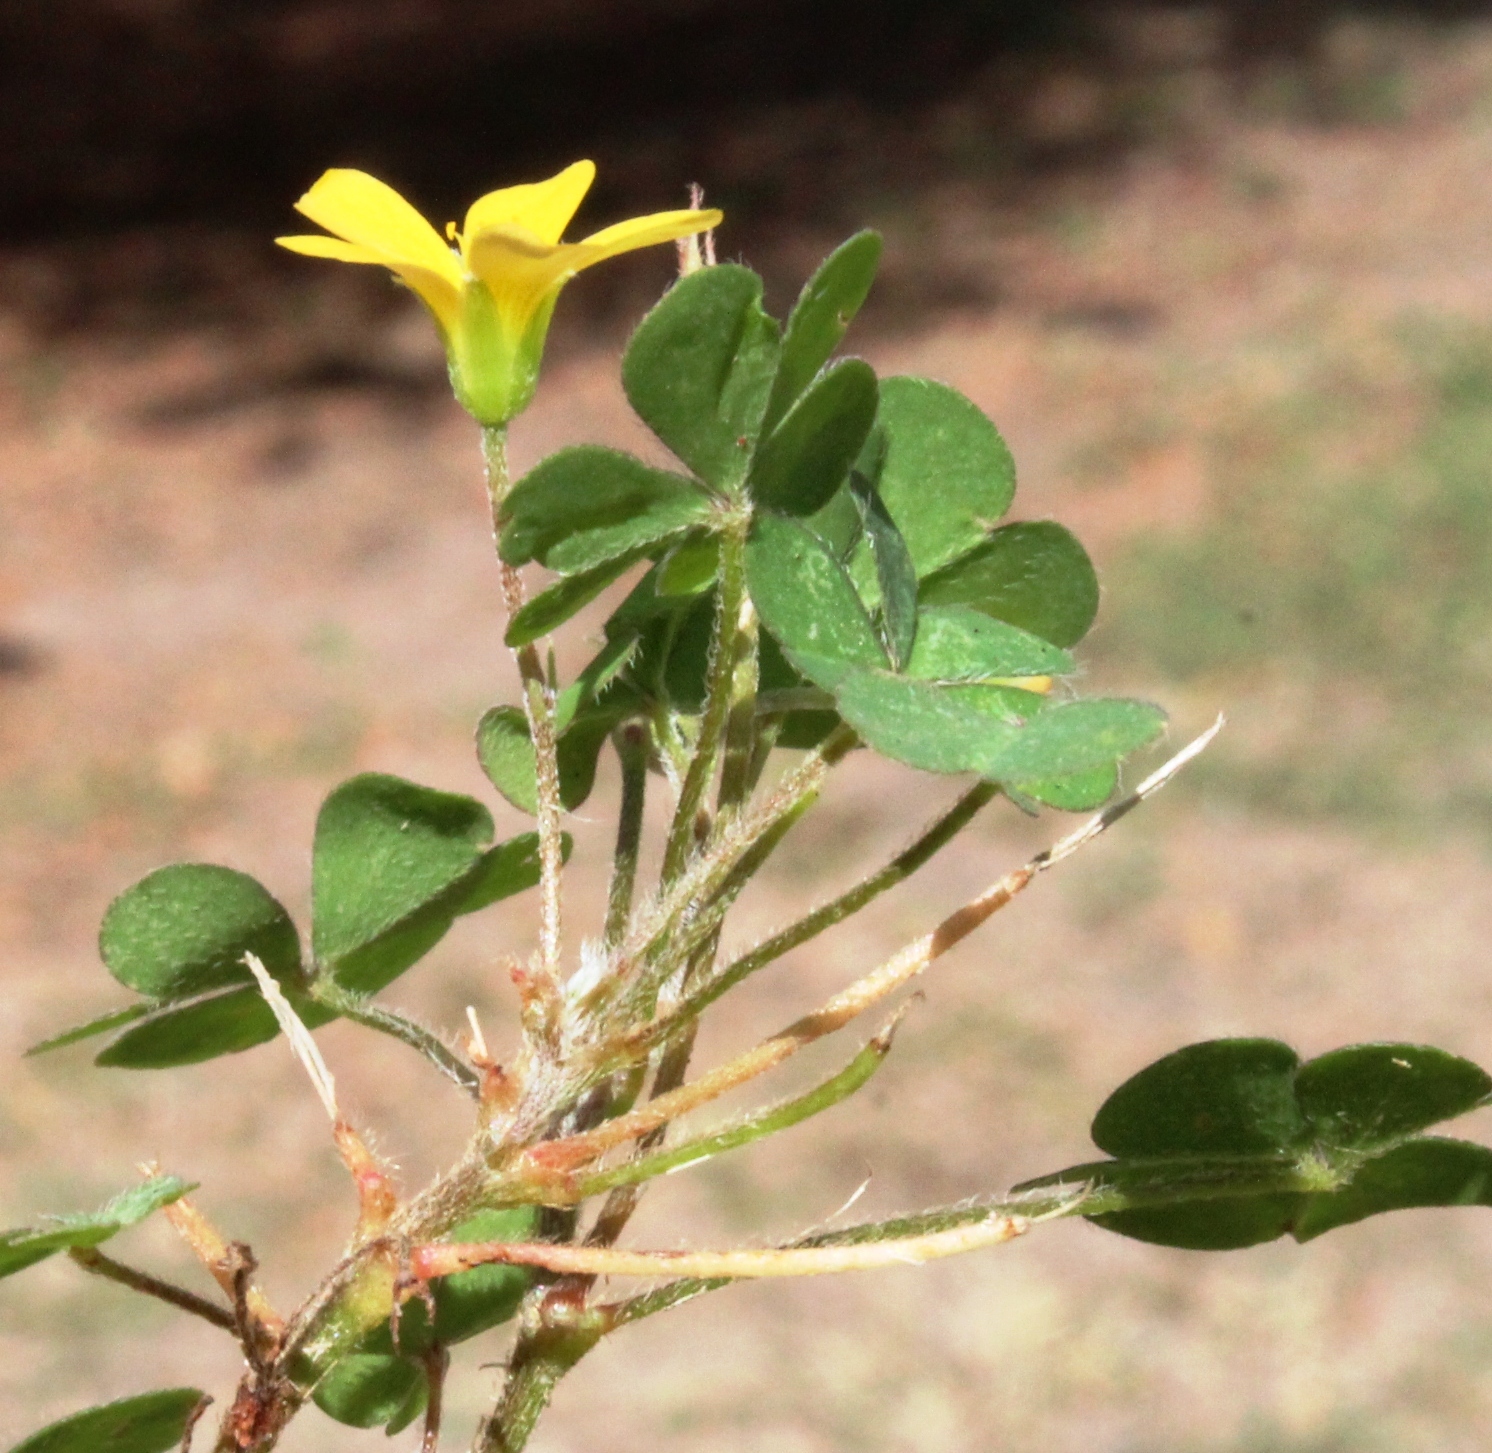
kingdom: Plantae
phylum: Tracheophyta
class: Magnoliopsida
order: Oxalidales
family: Oxalidaceae
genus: Oxalis
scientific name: Oxalis corniculata
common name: Procumbent yellow-sorrel
